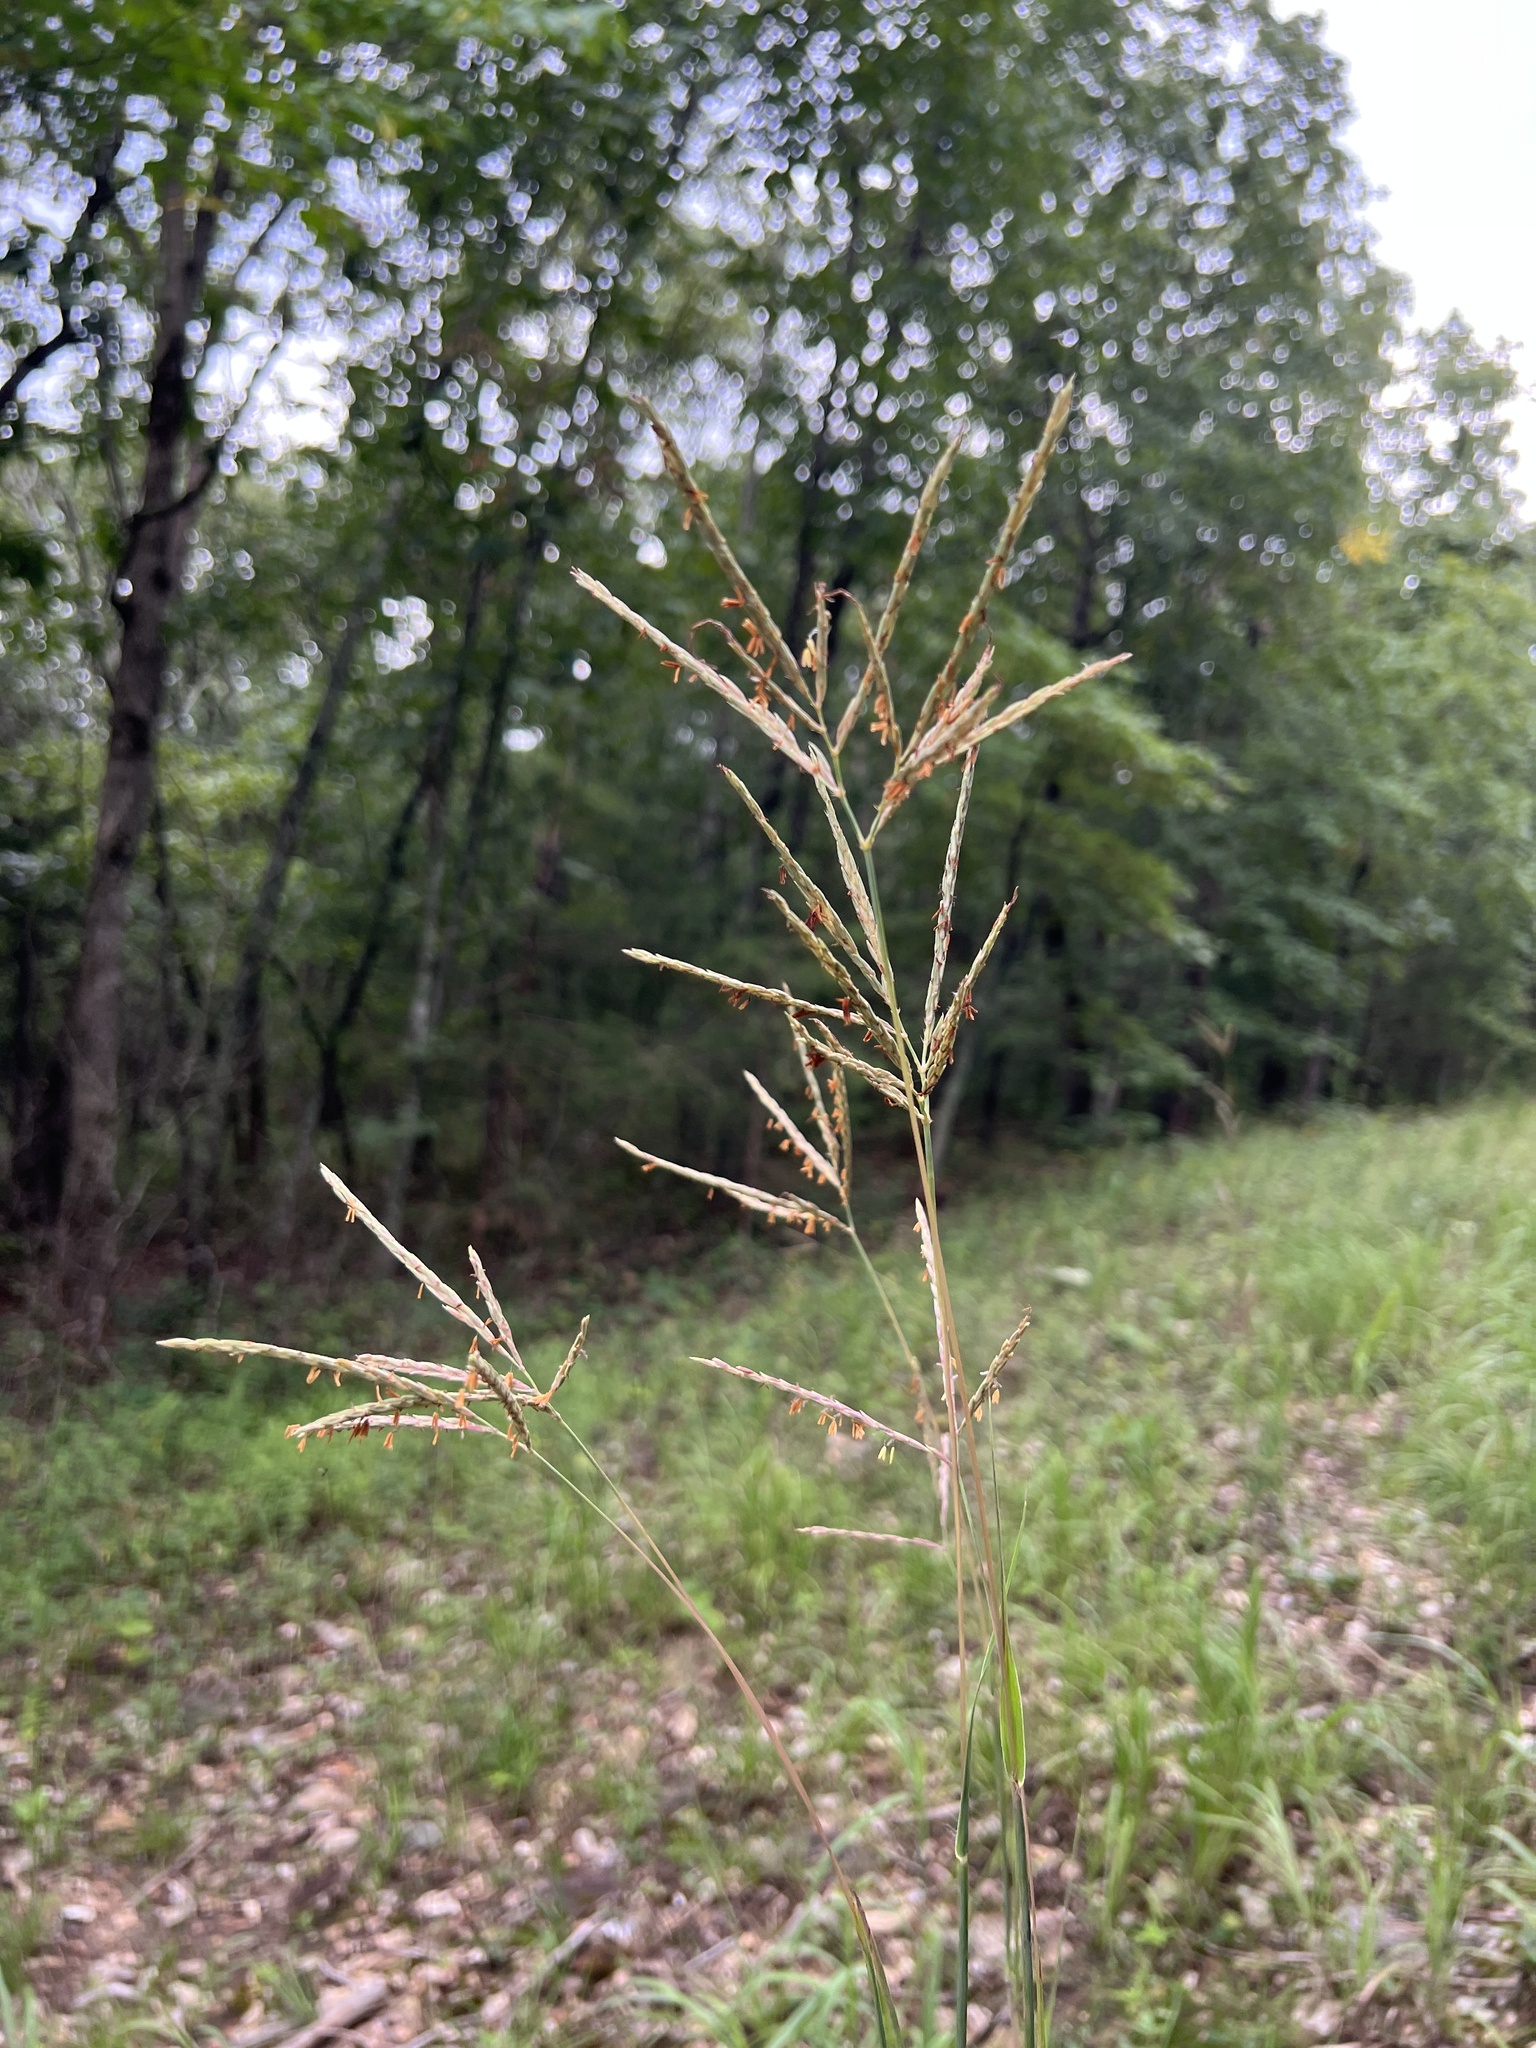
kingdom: Plantae
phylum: Tracheophyta
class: Liliopsida
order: Poales
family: Poaceae
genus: Andropogon
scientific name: Andropogon gerardi
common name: Big bluestem
